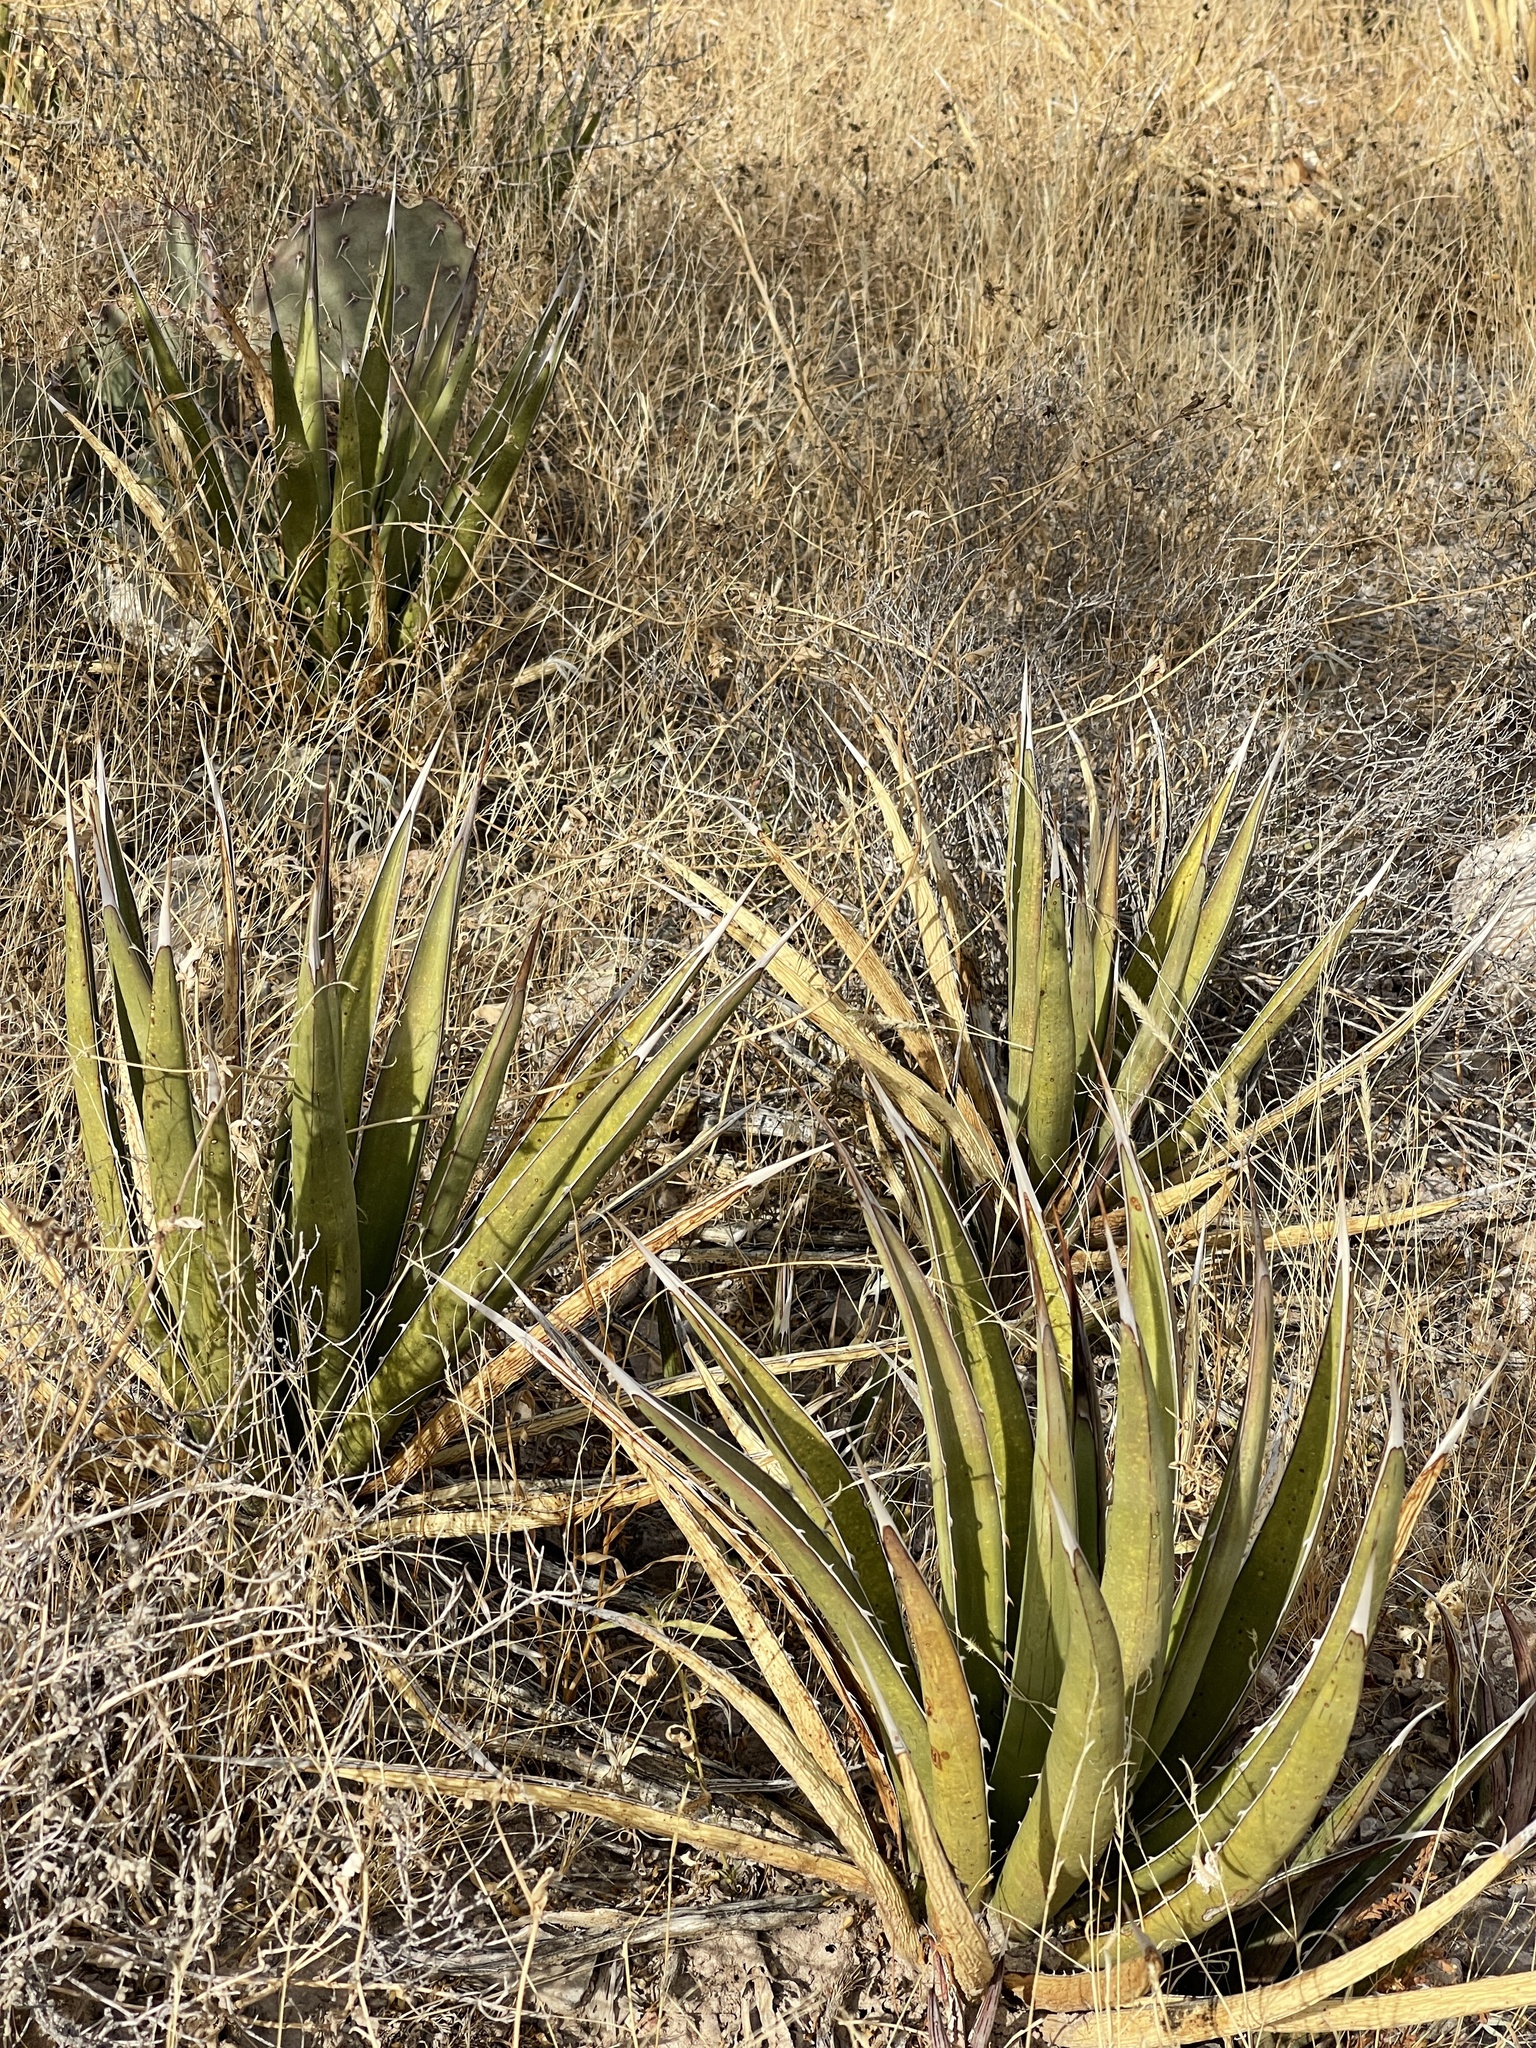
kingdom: Plantae
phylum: Tracheophyta
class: Liliopsida
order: Asparagales
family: Asparagaceae
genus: Agave
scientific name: Agave lechuguilla
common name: Lecheguilla agave
